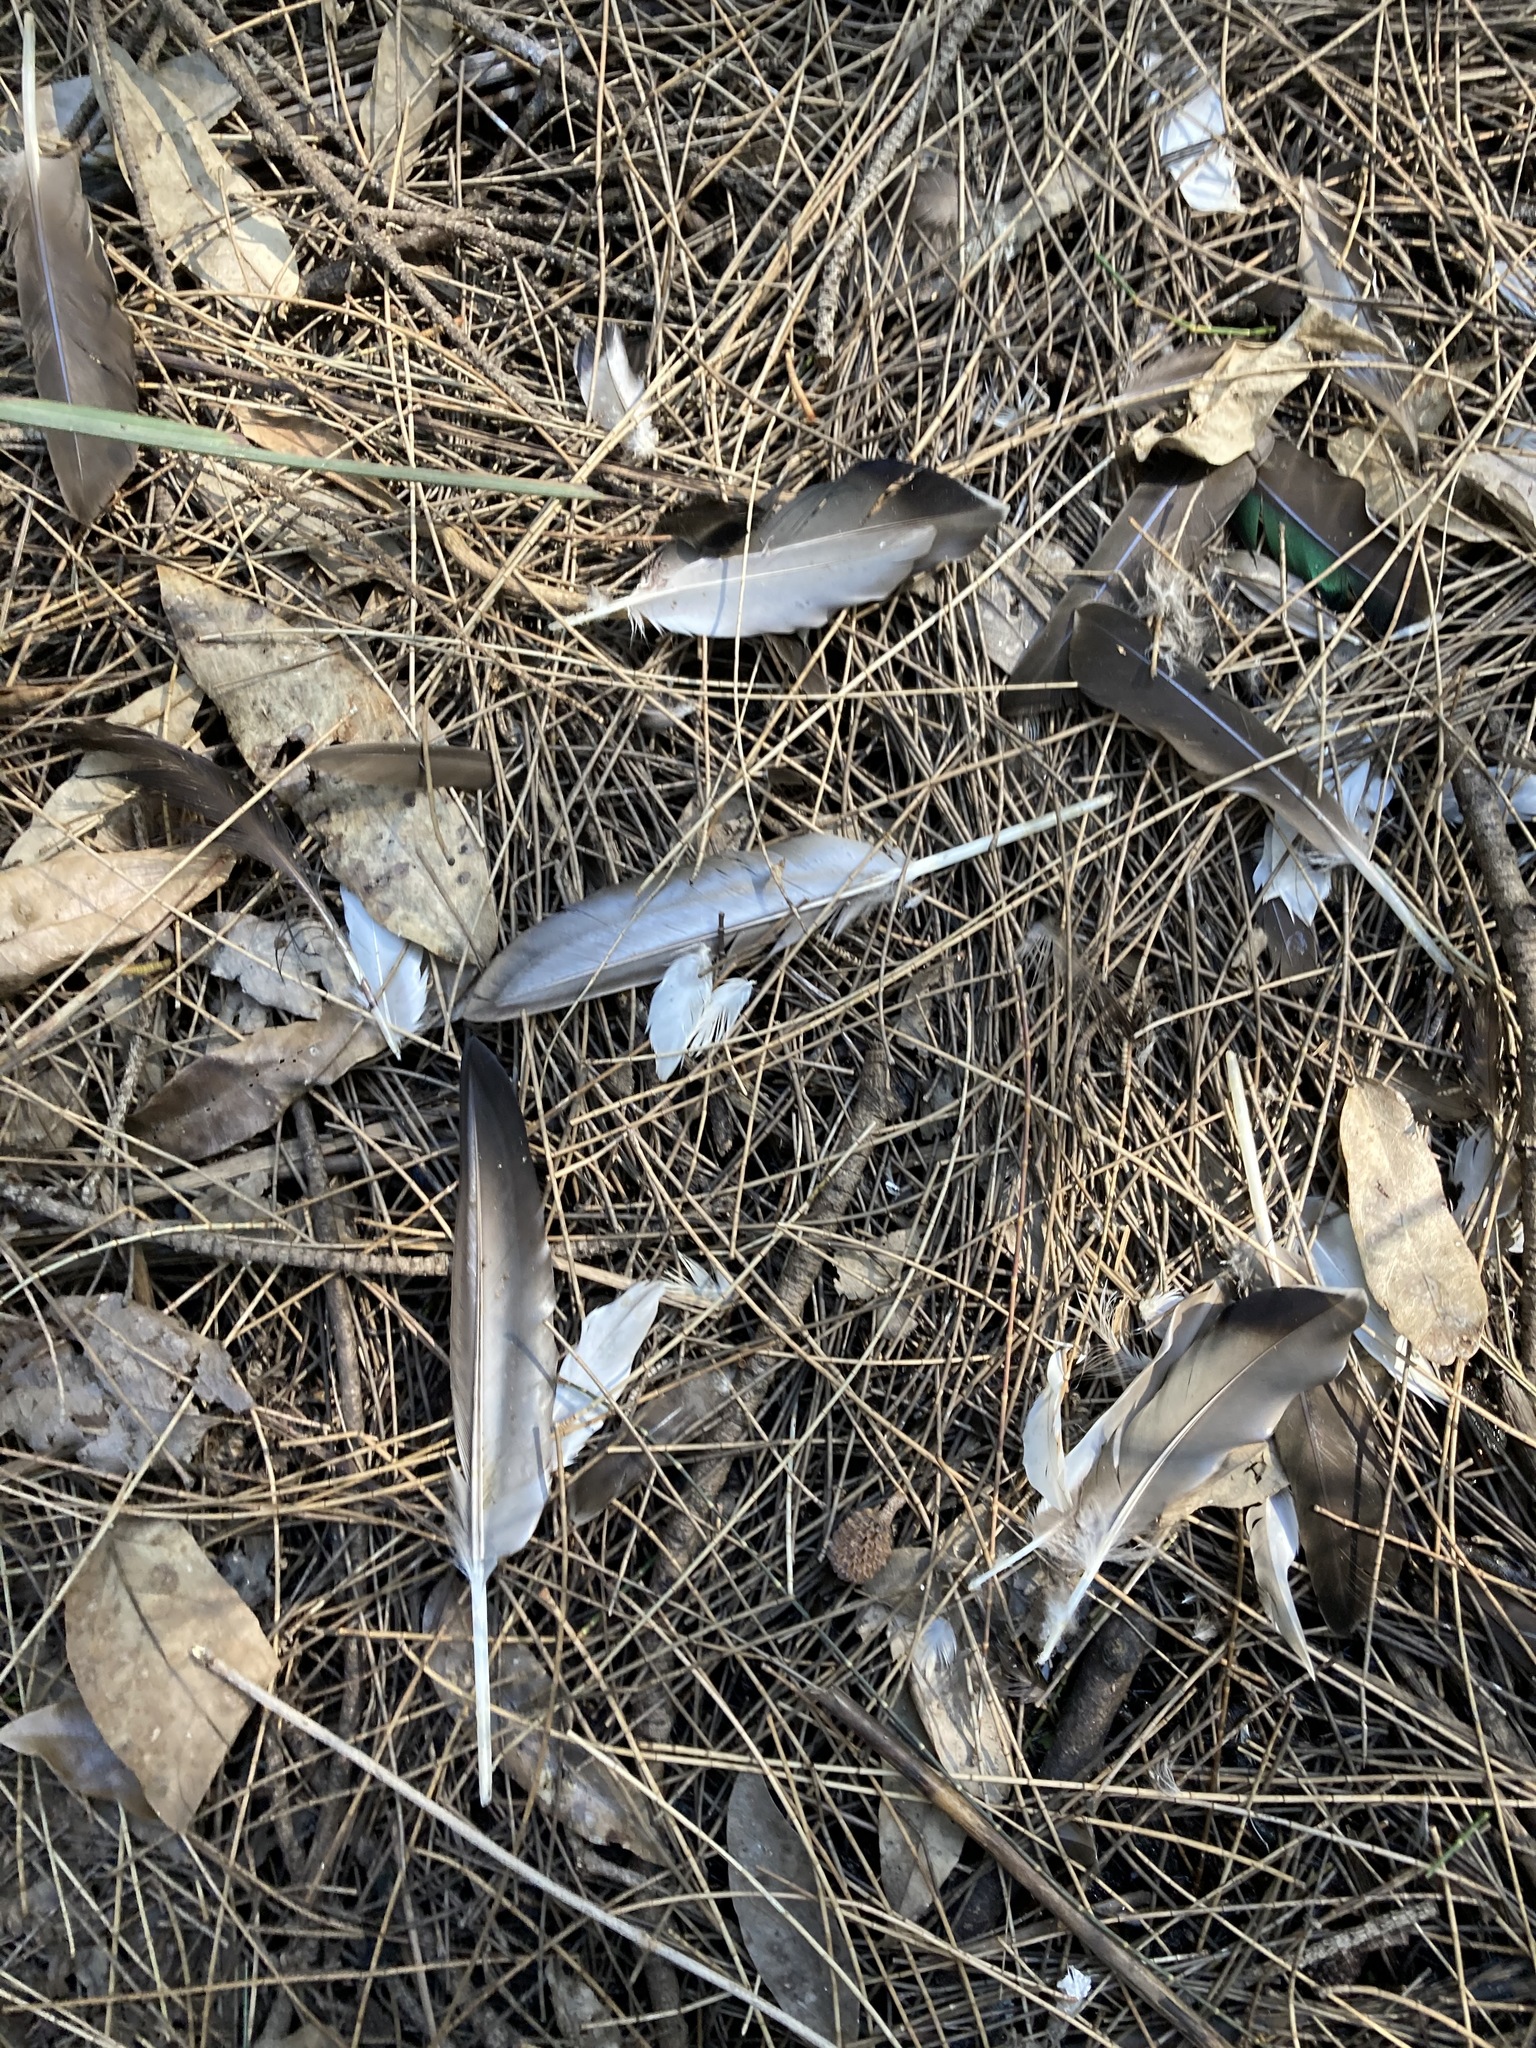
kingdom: Animalia
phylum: Chordata
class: Aves
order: Anseriformes
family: Anatidae
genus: Anas
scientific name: Anas superciliosa
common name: Pacific black duck
